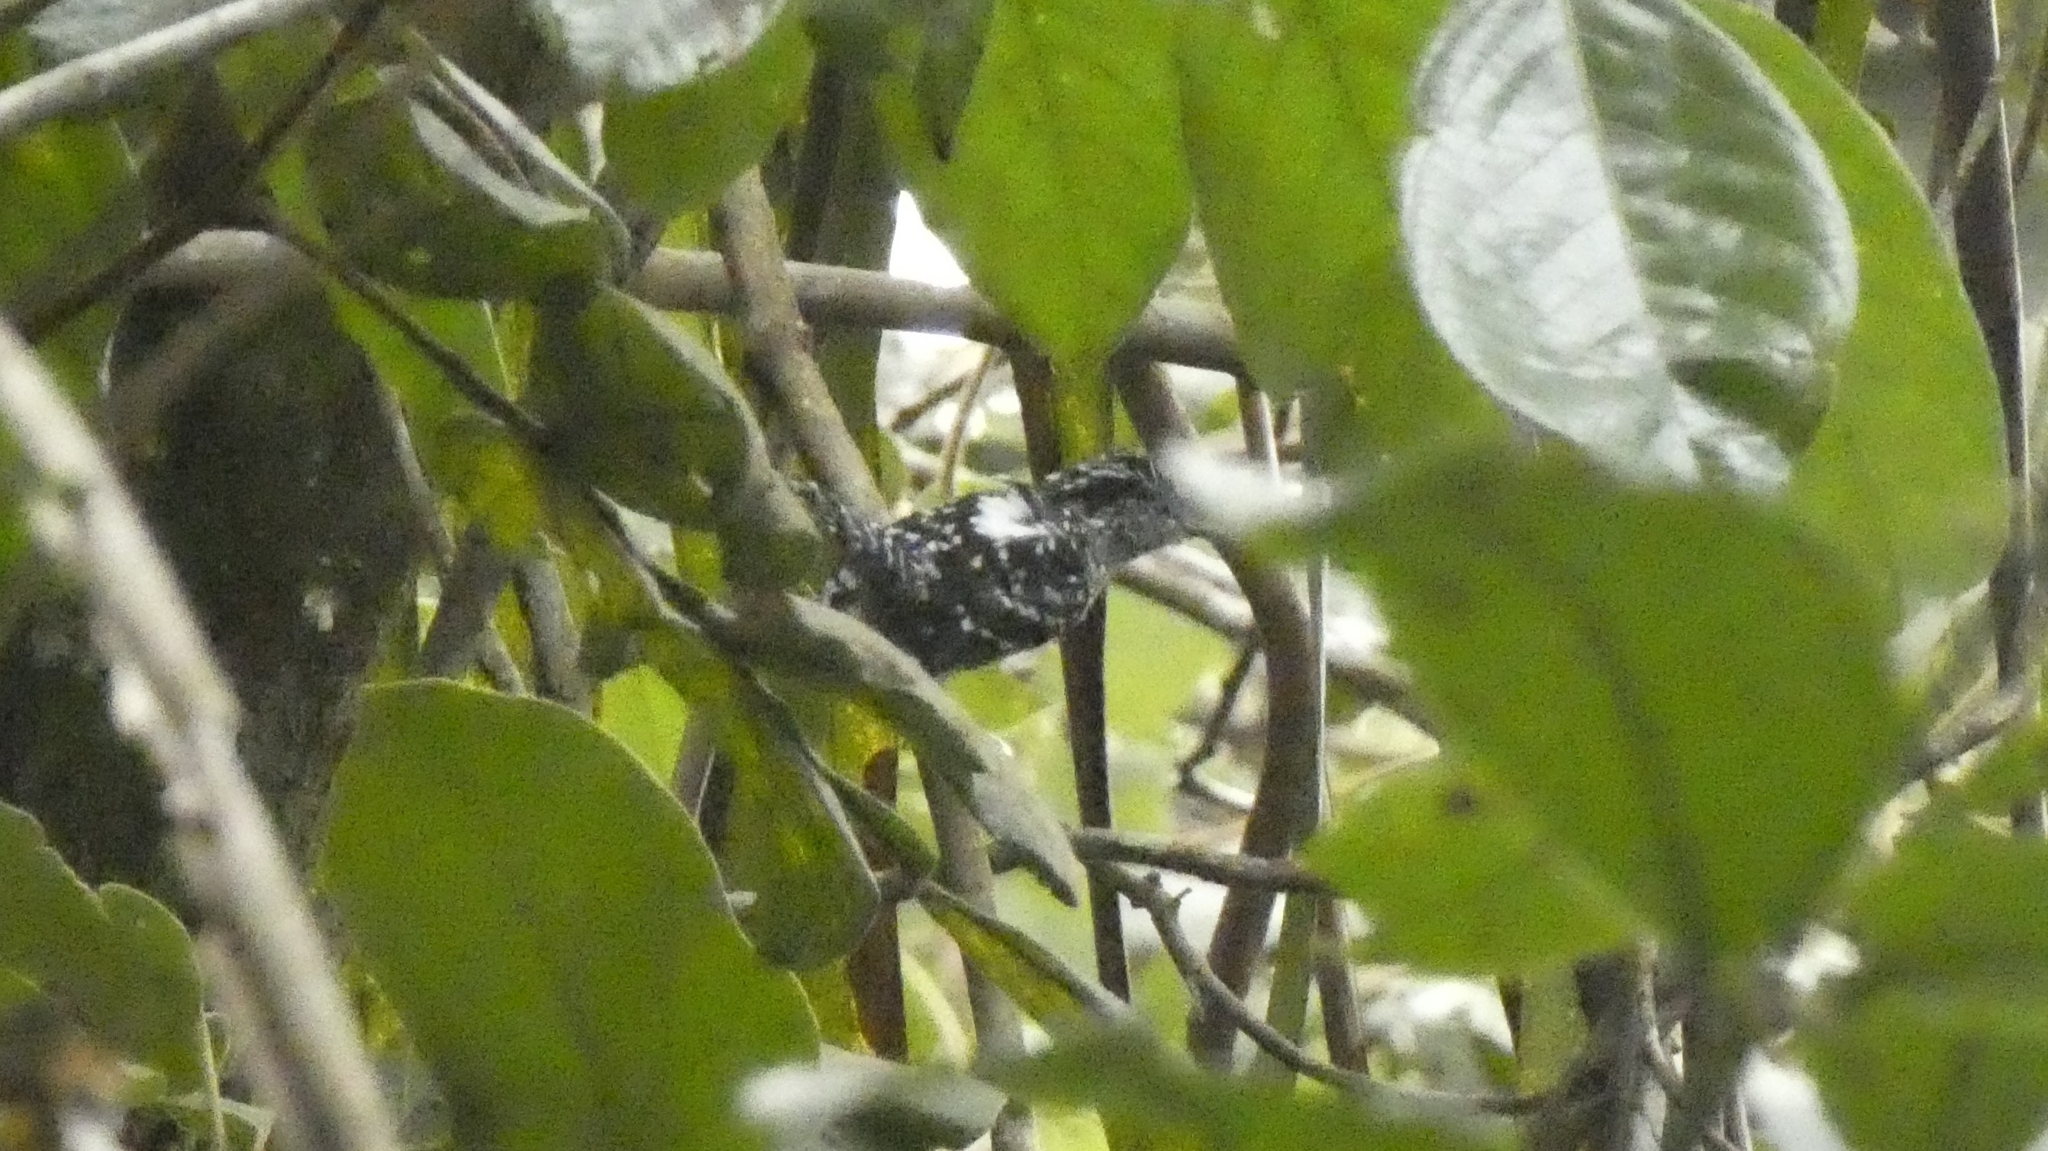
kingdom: Animalia
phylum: Chordata
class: Aves
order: Passeriformes
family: Thamnophilidae
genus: Drymophila
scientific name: Drymophila squamata
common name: Scaled antbird
